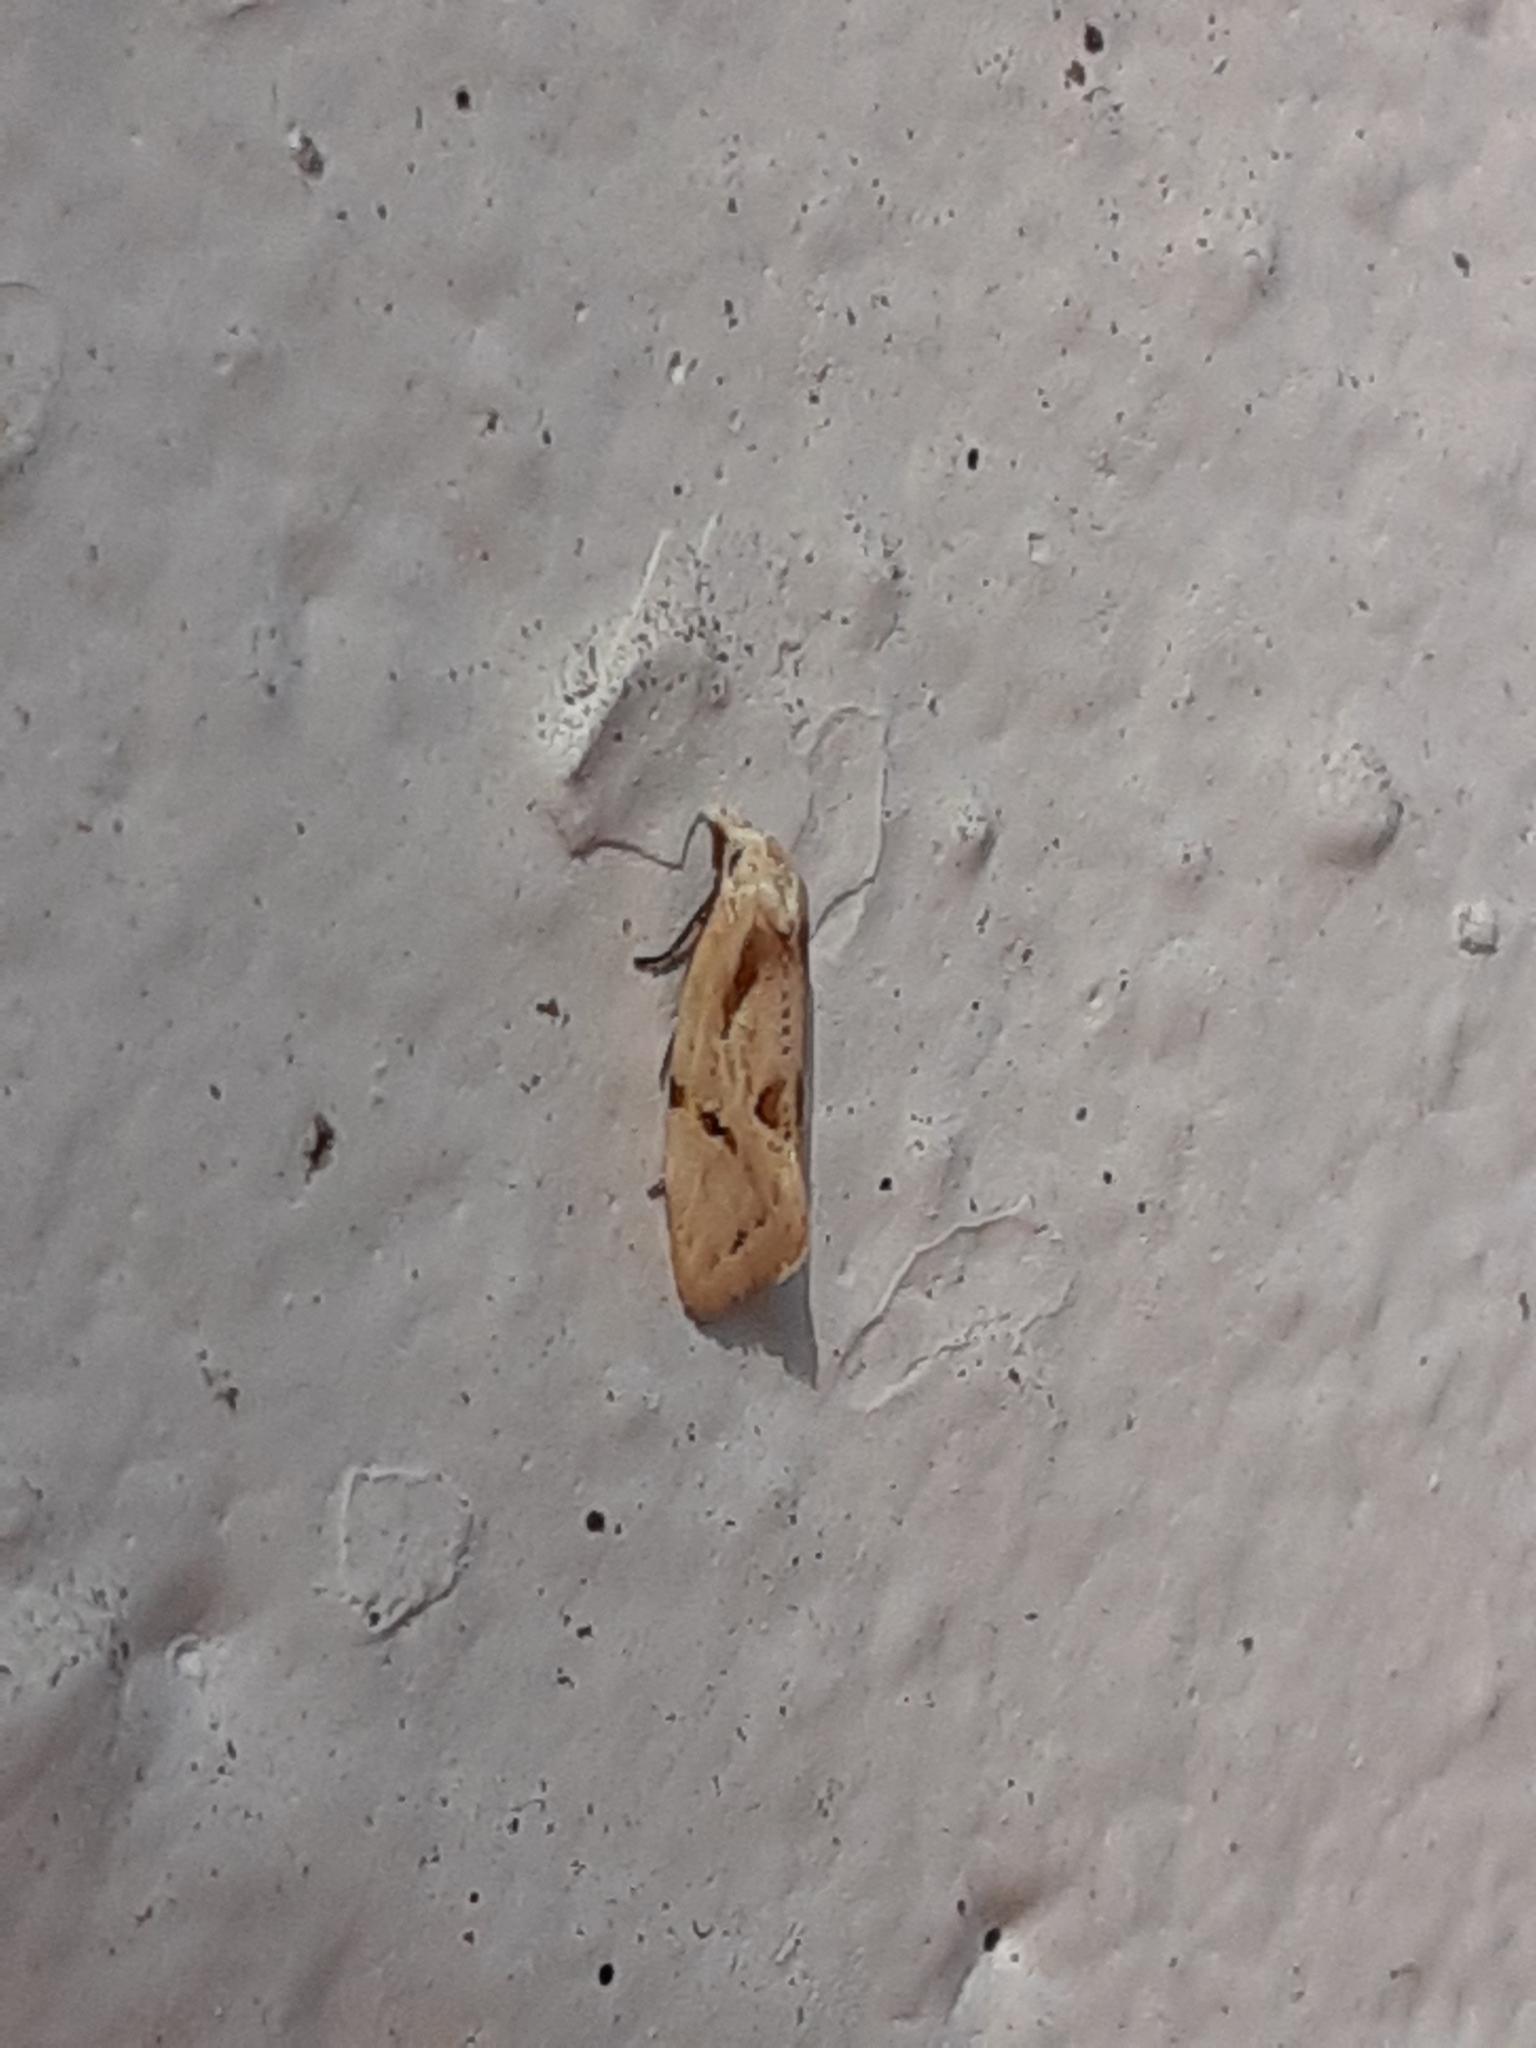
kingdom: Animalia
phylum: Arthropoda
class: Insecta
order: Lepidoptera
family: Tortricidae
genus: Aethes
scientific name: Aethes seriatana
